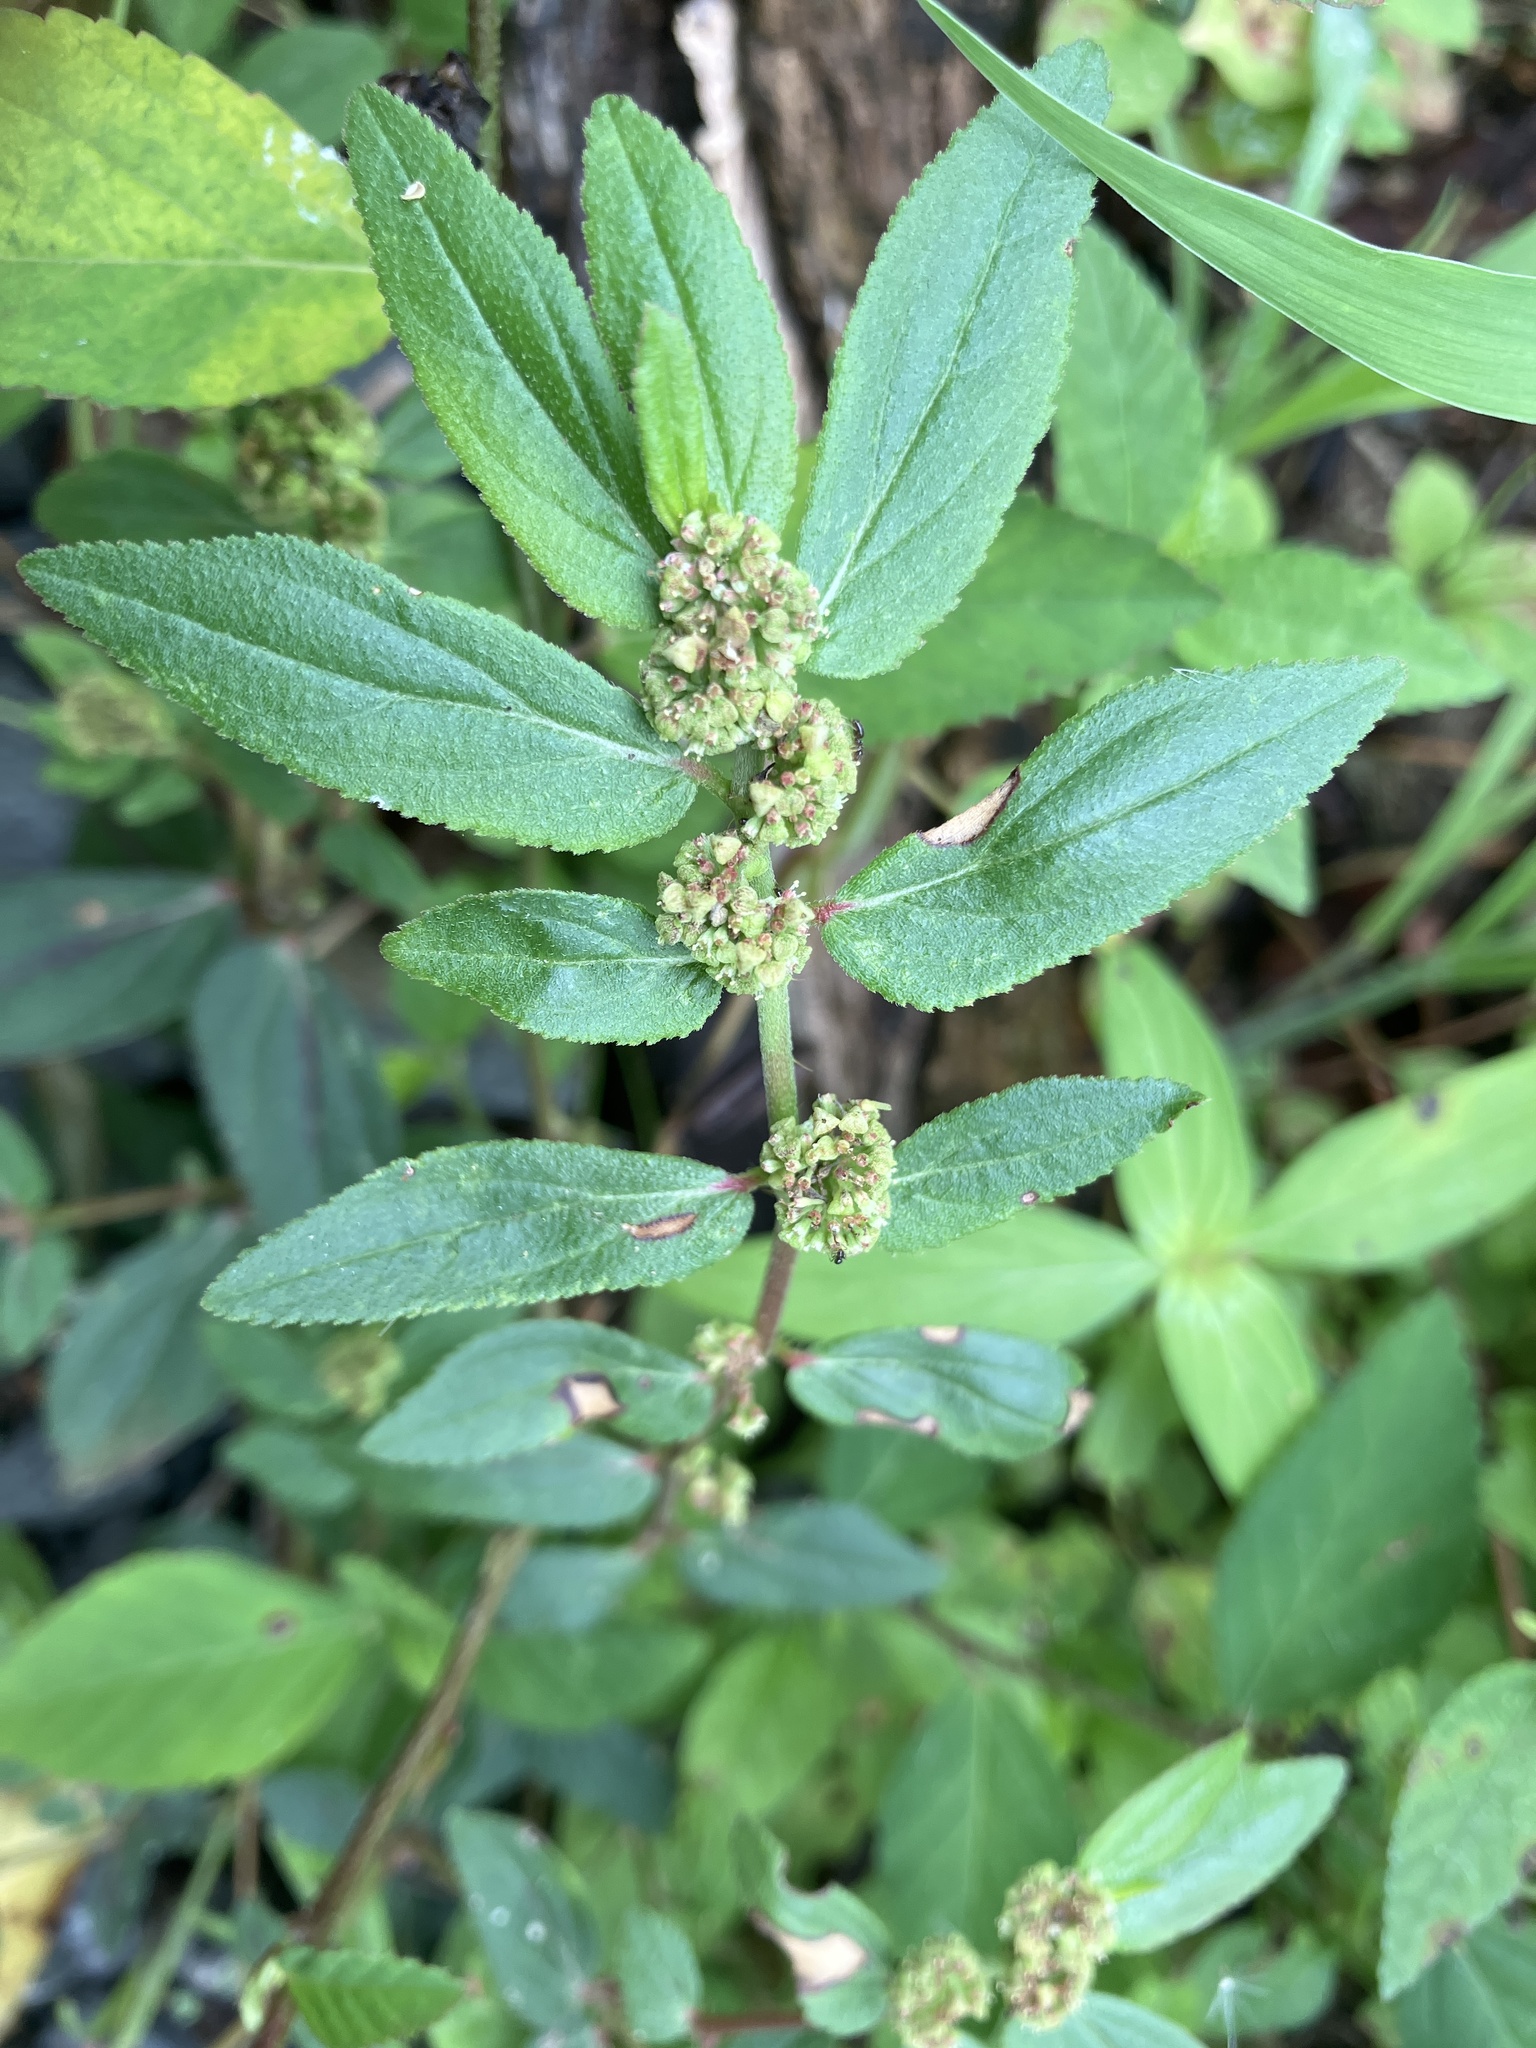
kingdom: Plantae
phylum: Tracheophyta
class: Magnoliopsida
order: Malpighiales
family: Euphorbiaceae
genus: Euphorbia
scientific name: Euphorbia hirta
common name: Pillpod sandmat
